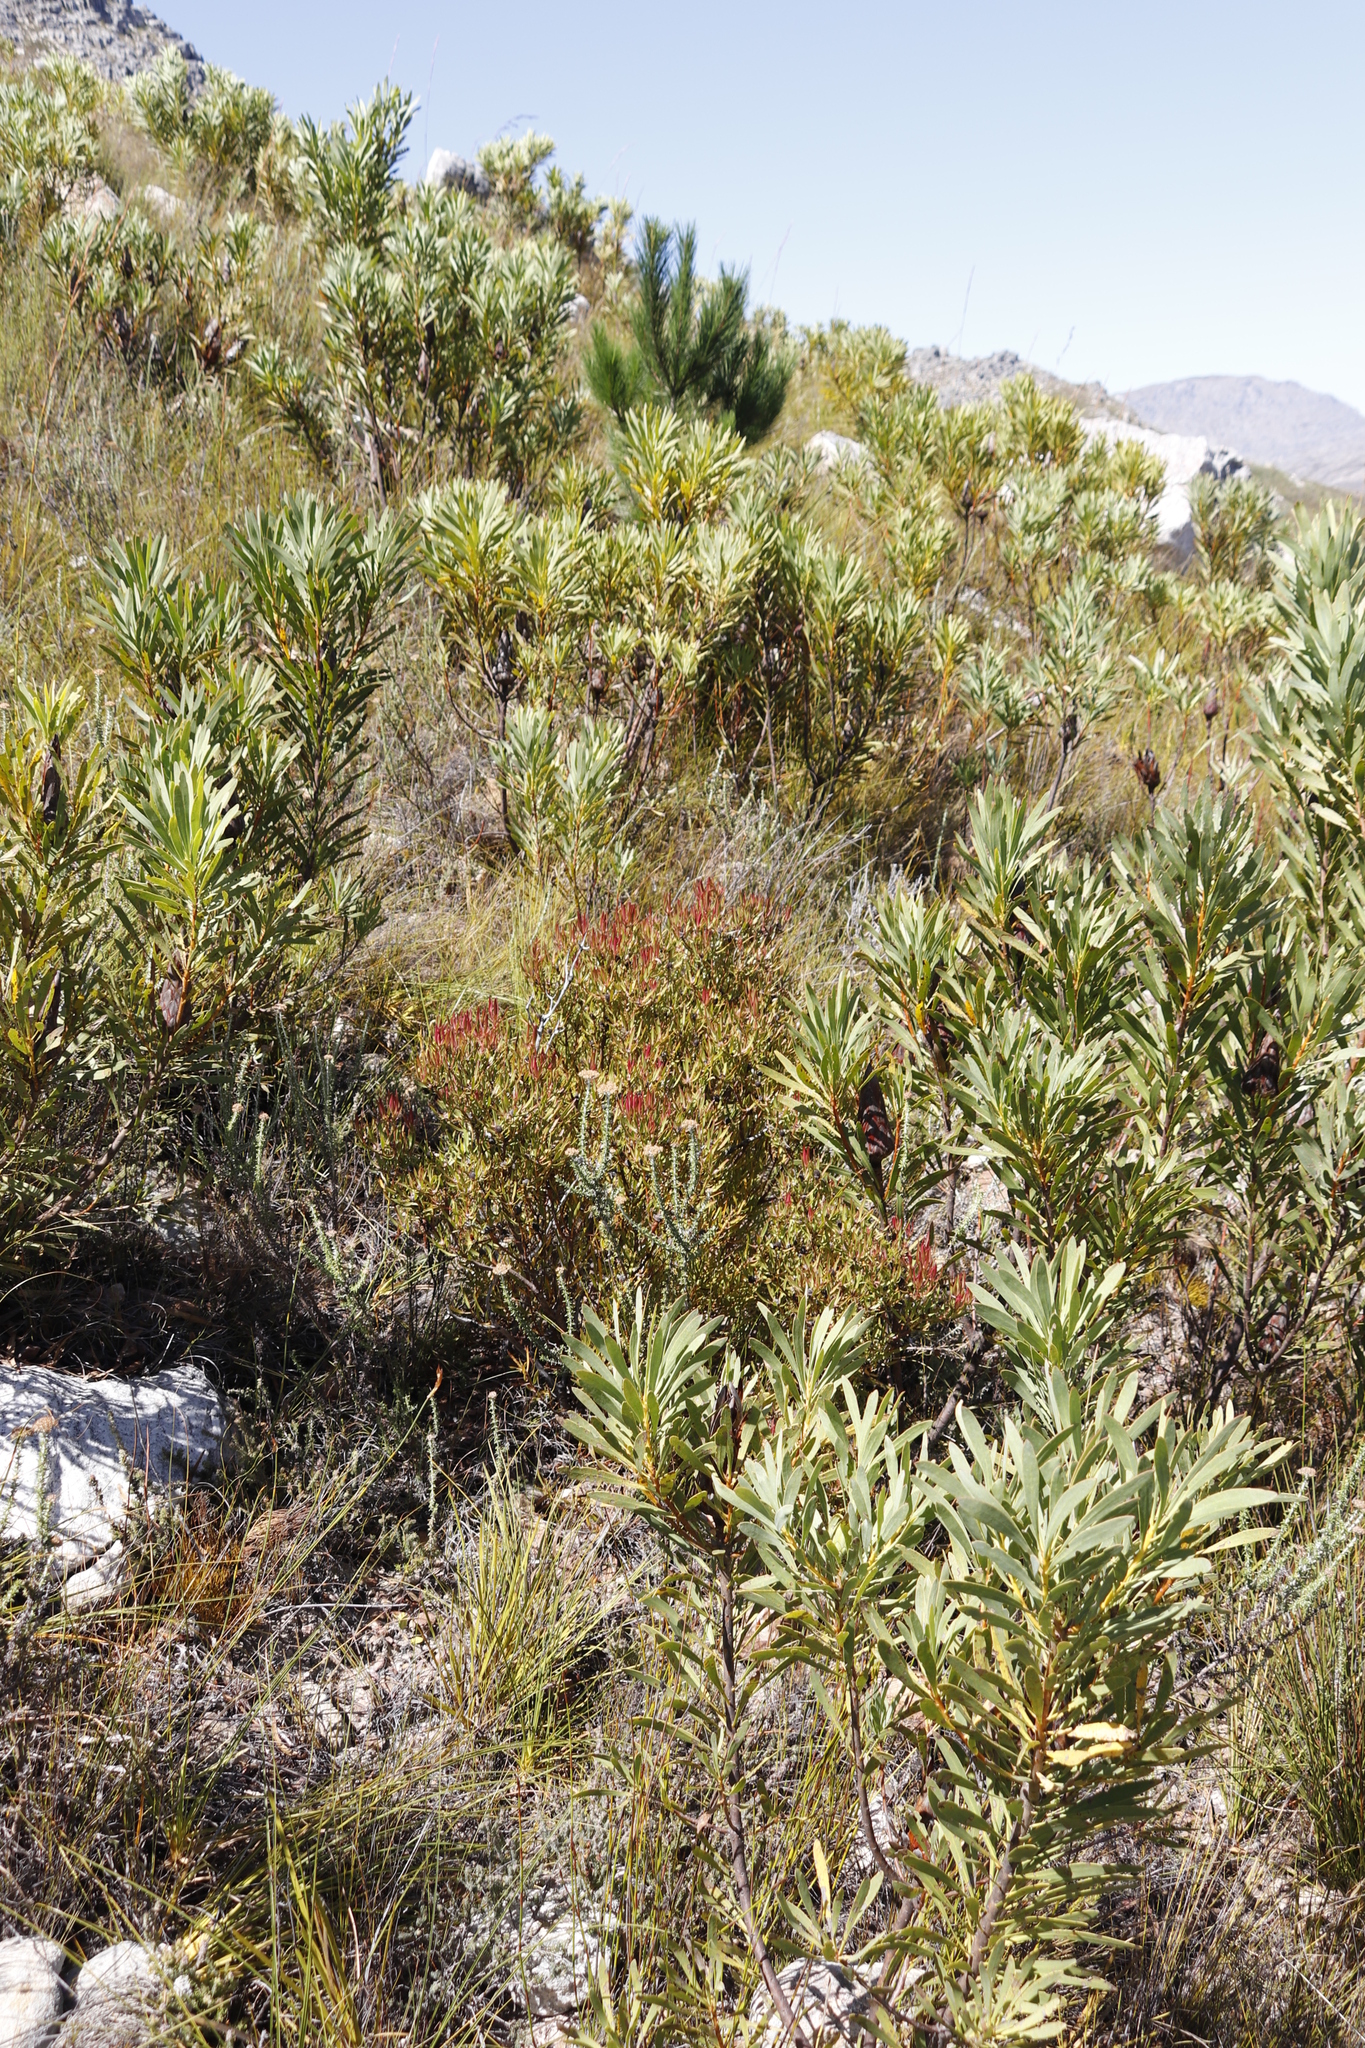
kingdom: Plantae
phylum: Tracheophyta
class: Pinopsida
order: Pinales
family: Pinaceae
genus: Pinus
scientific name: Pinus radiata
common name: Monterey pine
